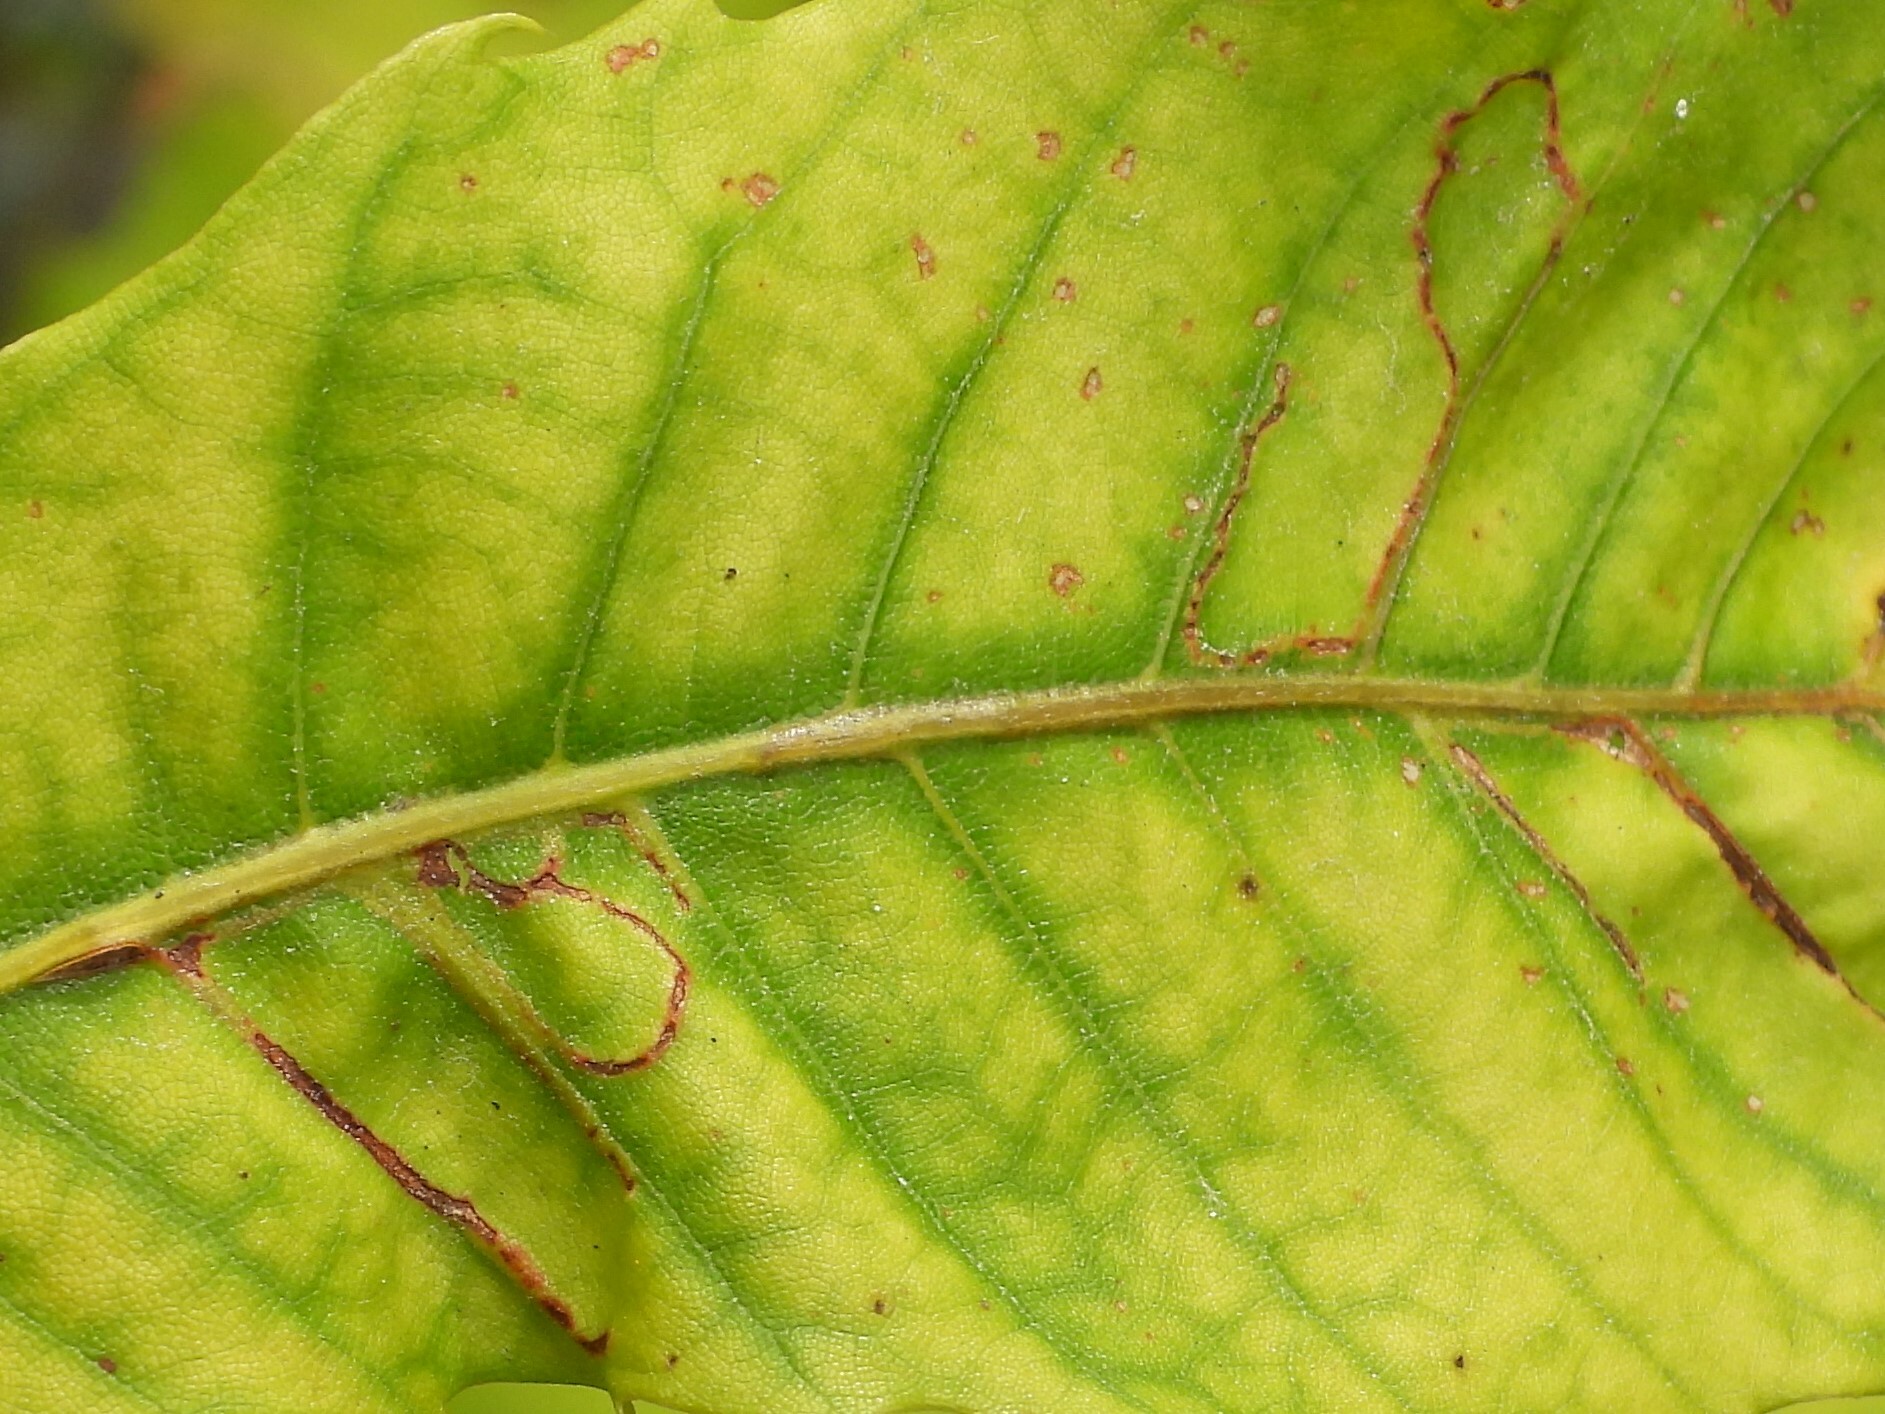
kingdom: Animalia
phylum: Arthropoda
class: Insecta
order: Lepidoptera
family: Gracillariidae
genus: Neurobathra
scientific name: Neurobathra strigifinitella
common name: Finite-channeled leafminer moth
